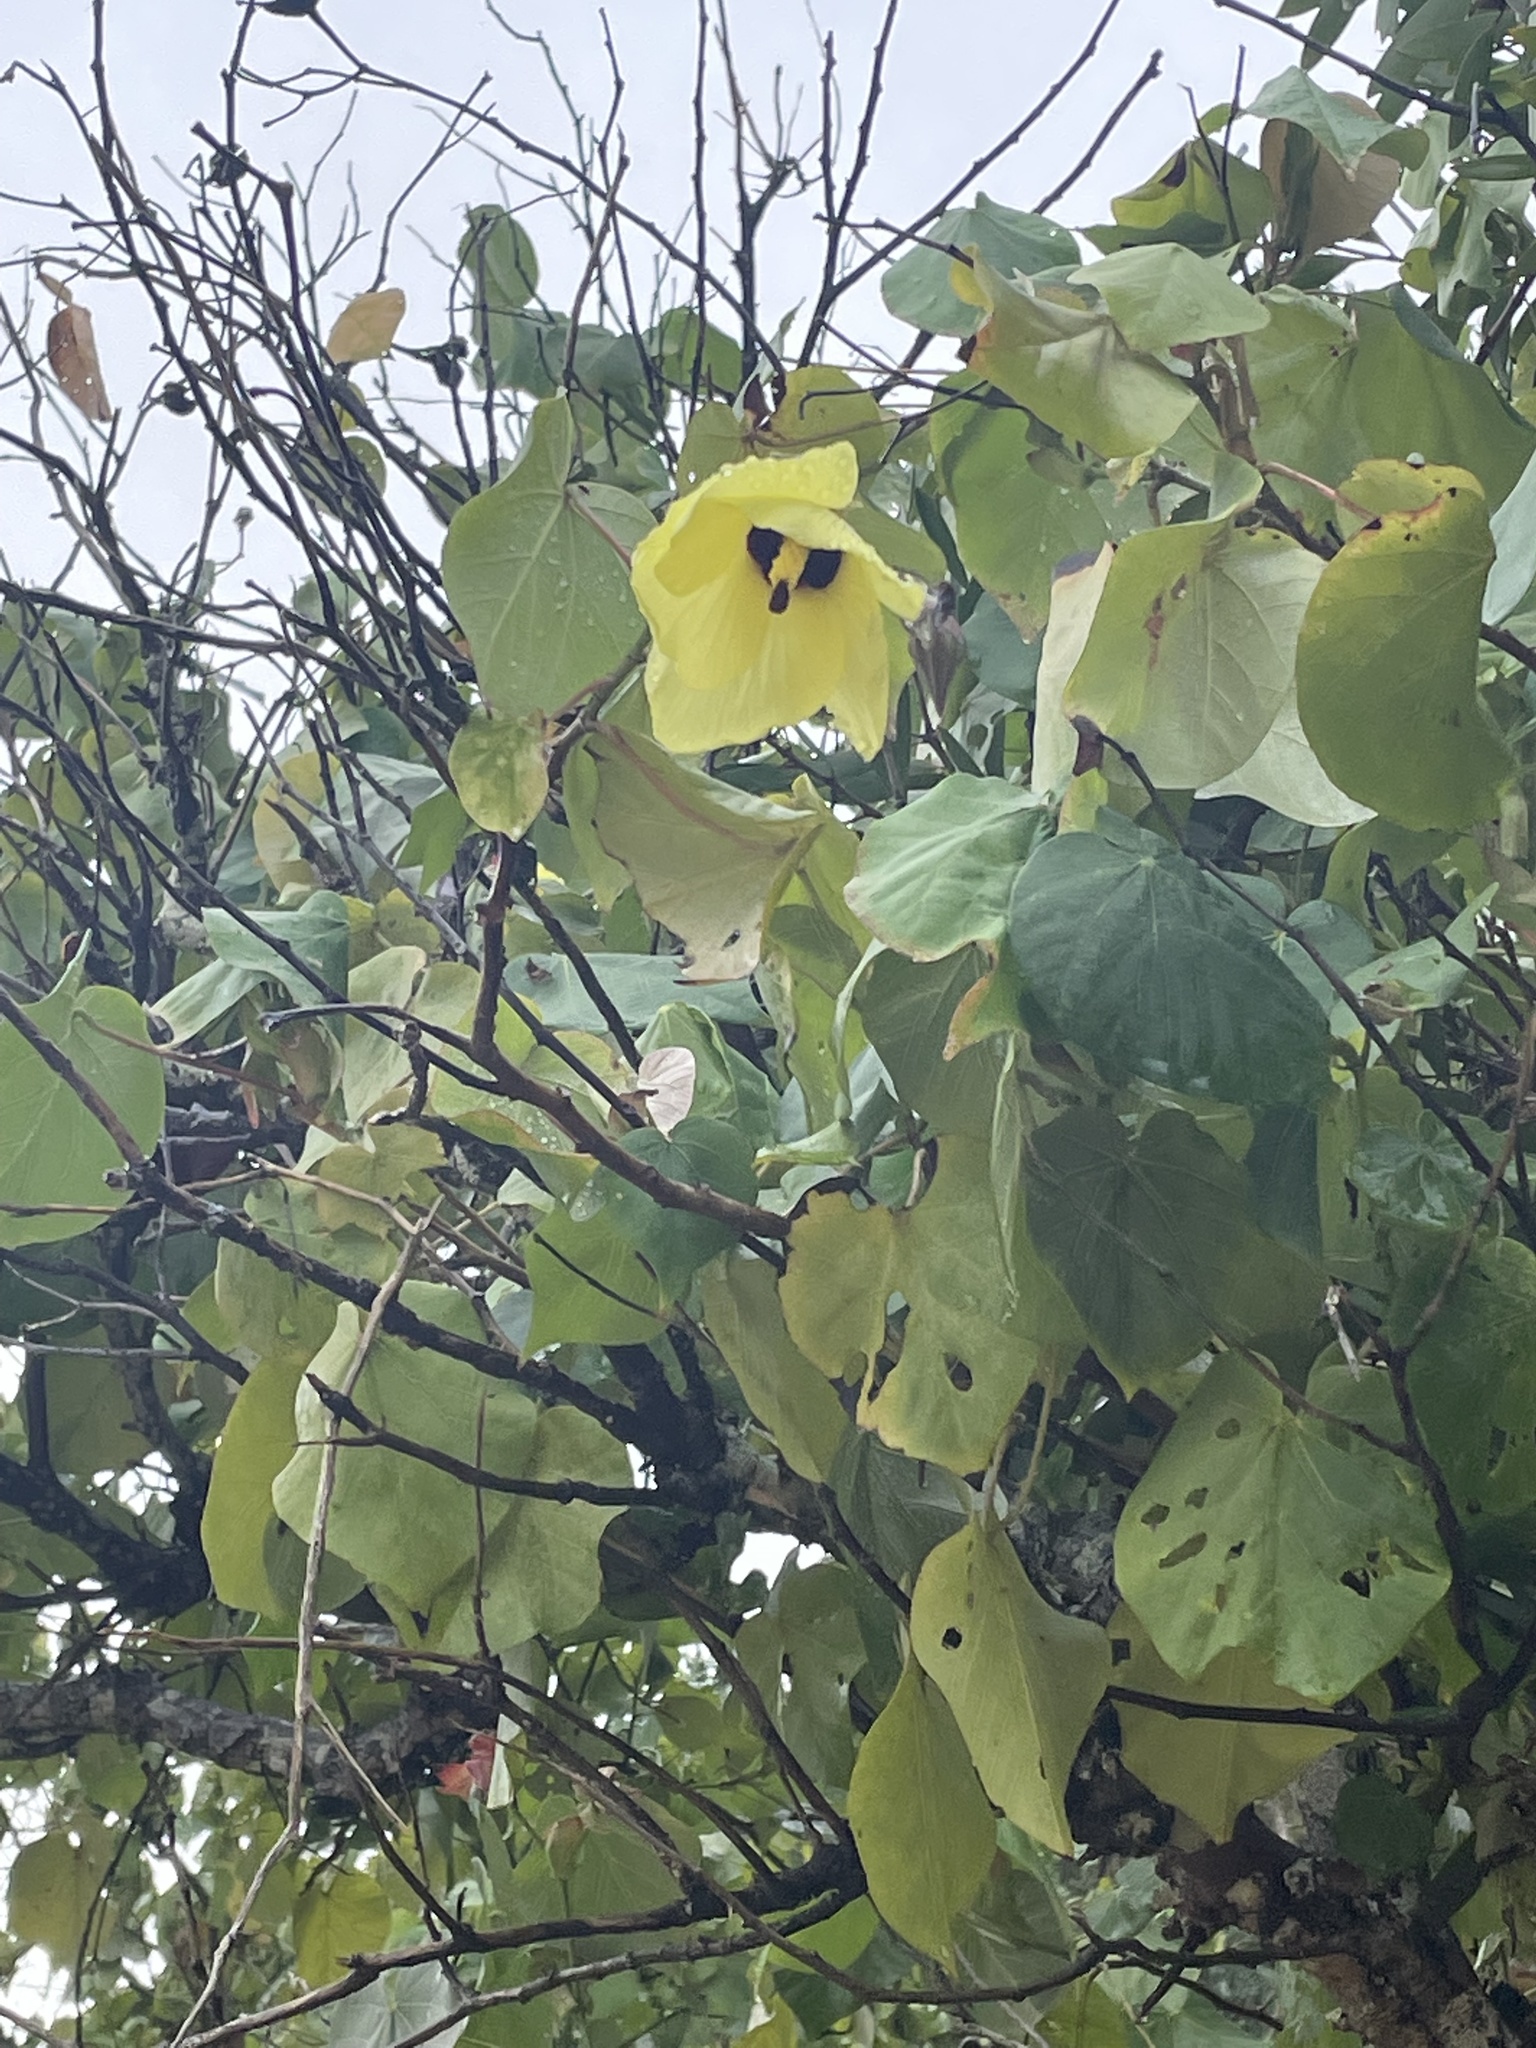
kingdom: Plantae
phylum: Tracheophyta
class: Magnoliopsida
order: Malvales
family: Malvaceae
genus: Talipariti
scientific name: Talipariti tiliaceum
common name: Sea hibiscus
